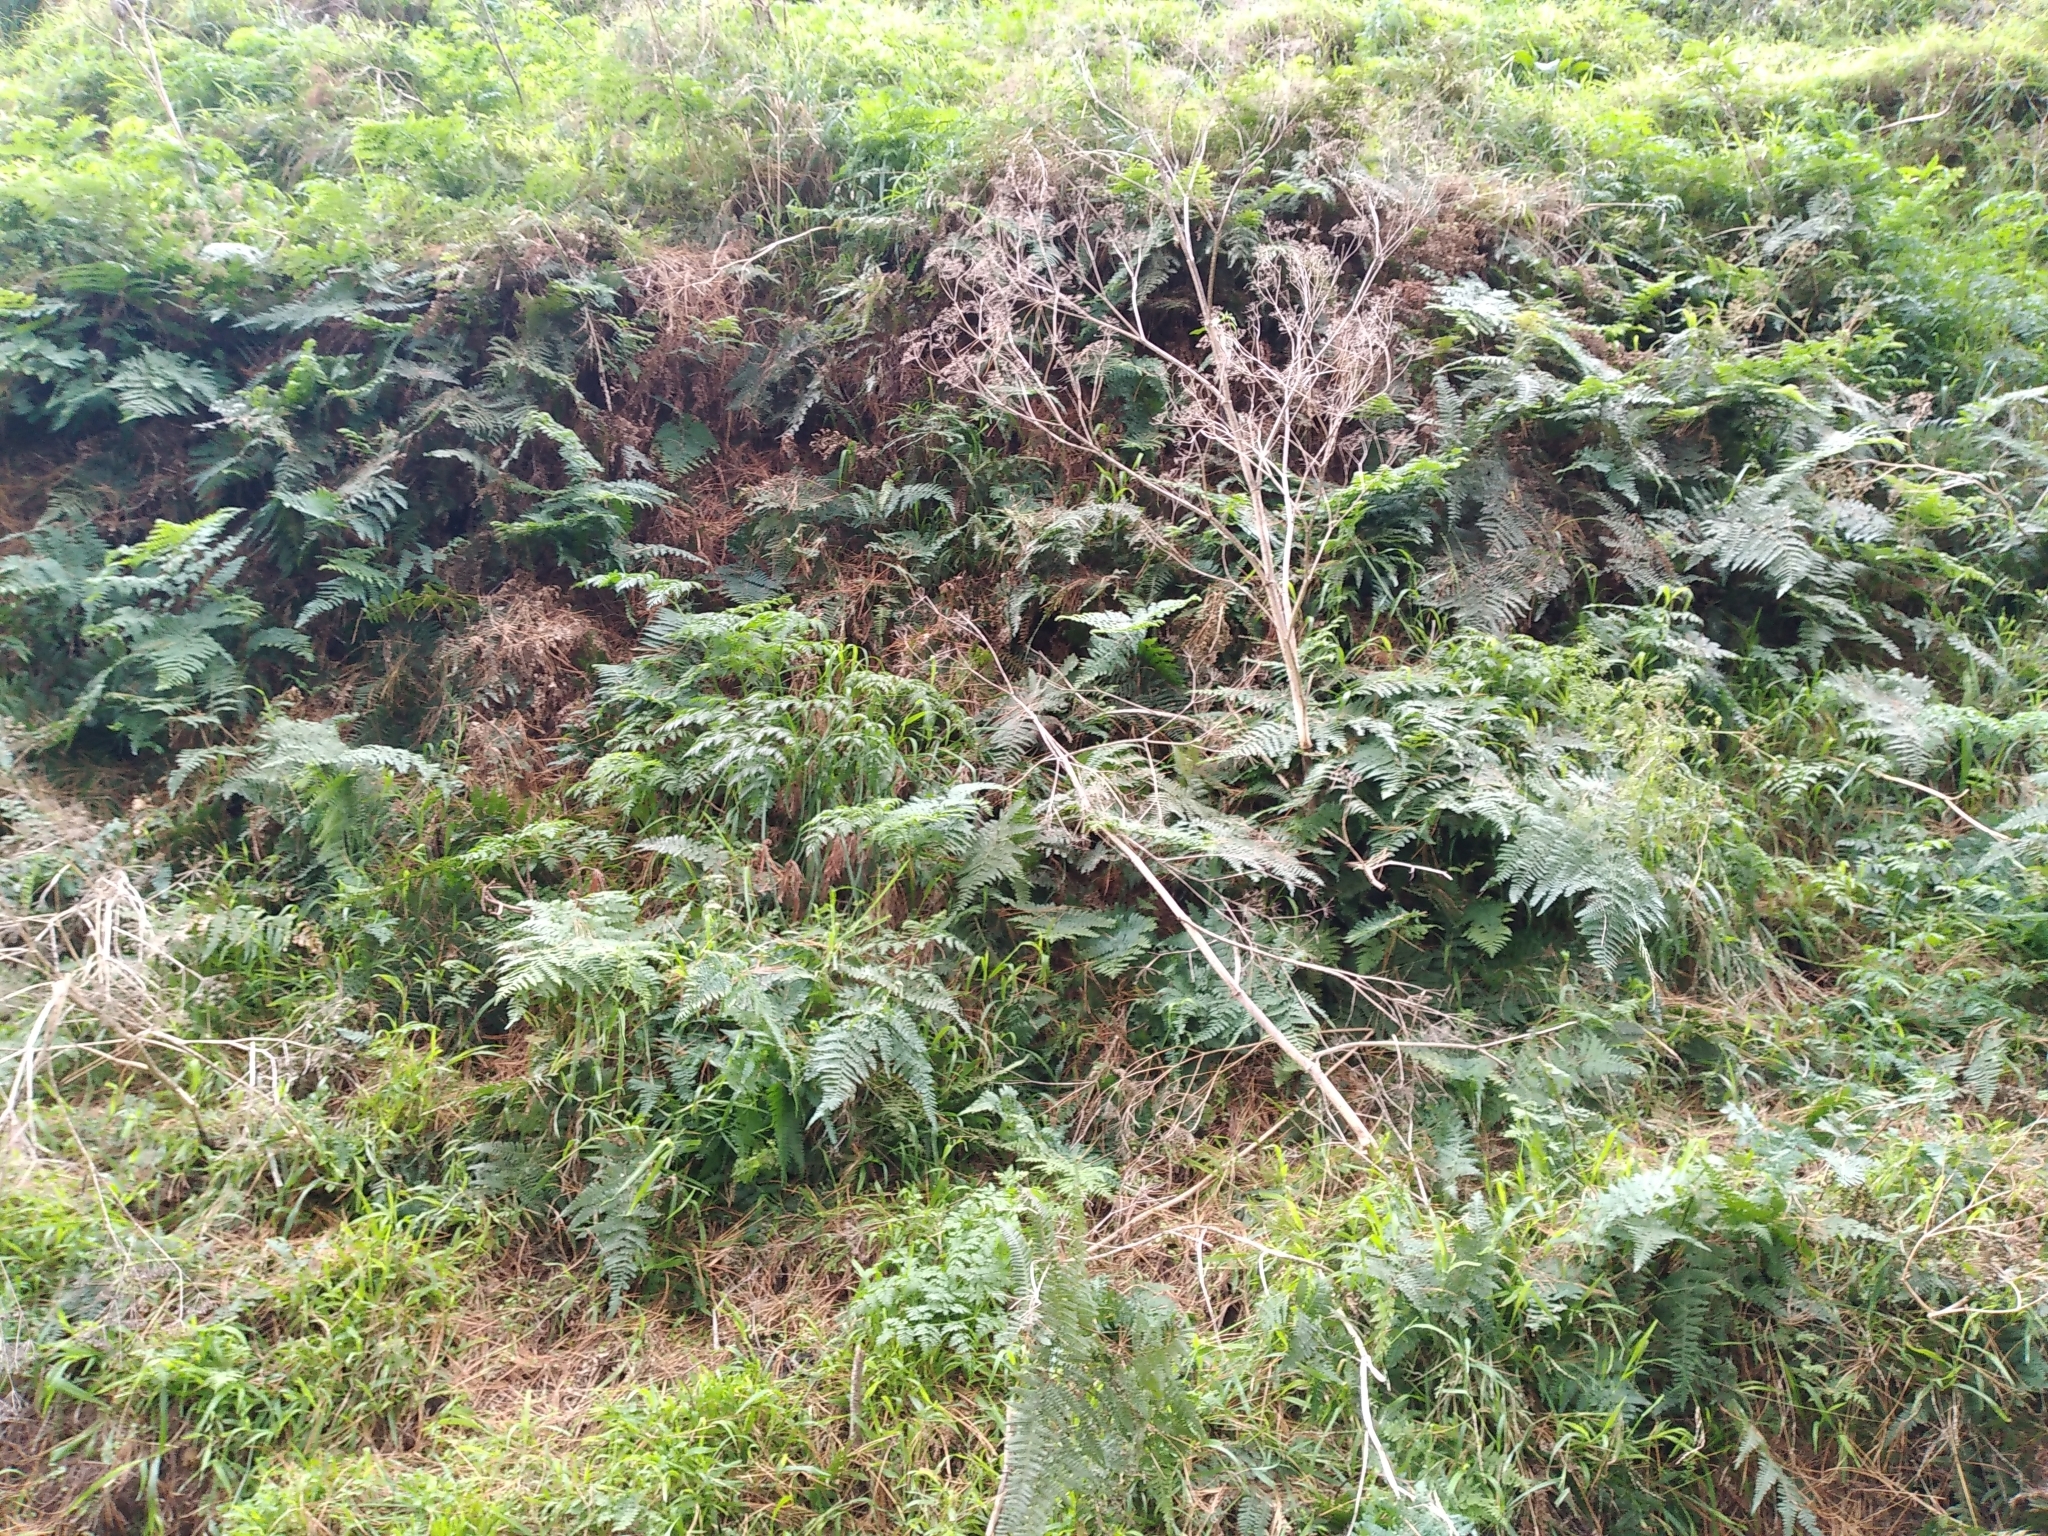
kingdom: Plantae
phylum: Tracheophyta
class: Polypodiopsida
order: Polypodiales
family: Dennstaedtiaceae
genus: Hypolepis
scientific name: Hypolepis ambigua
